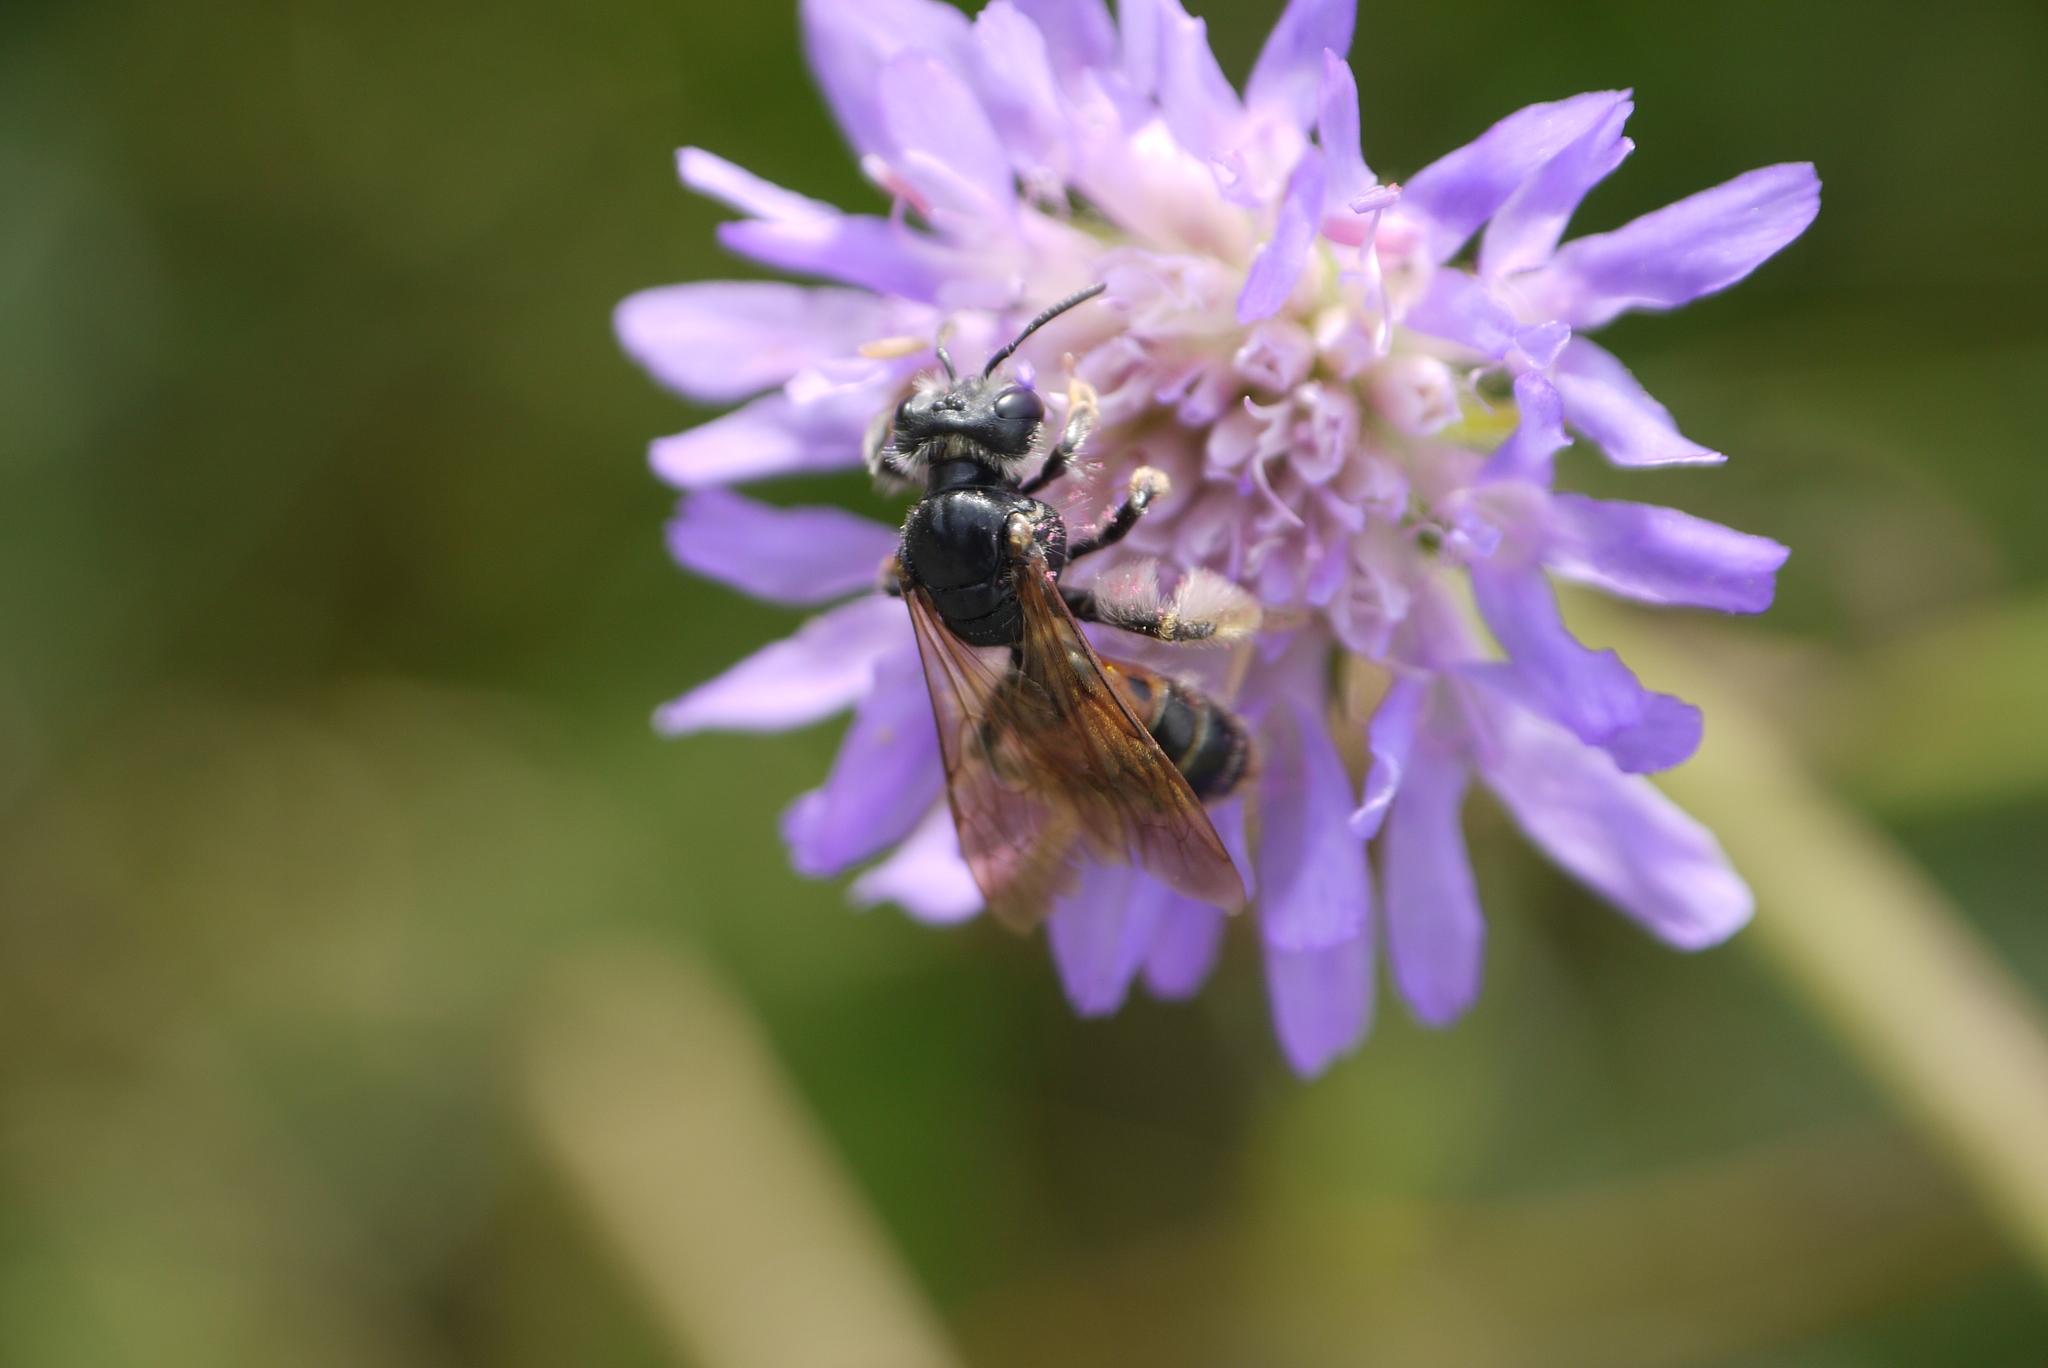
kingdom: Animalia
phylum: Arthropoda
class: Insecta
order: Hymenoptera
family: Andrenidae
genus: Andrena
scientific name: Andrena hattorfiana
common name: Large scabious mining bee
